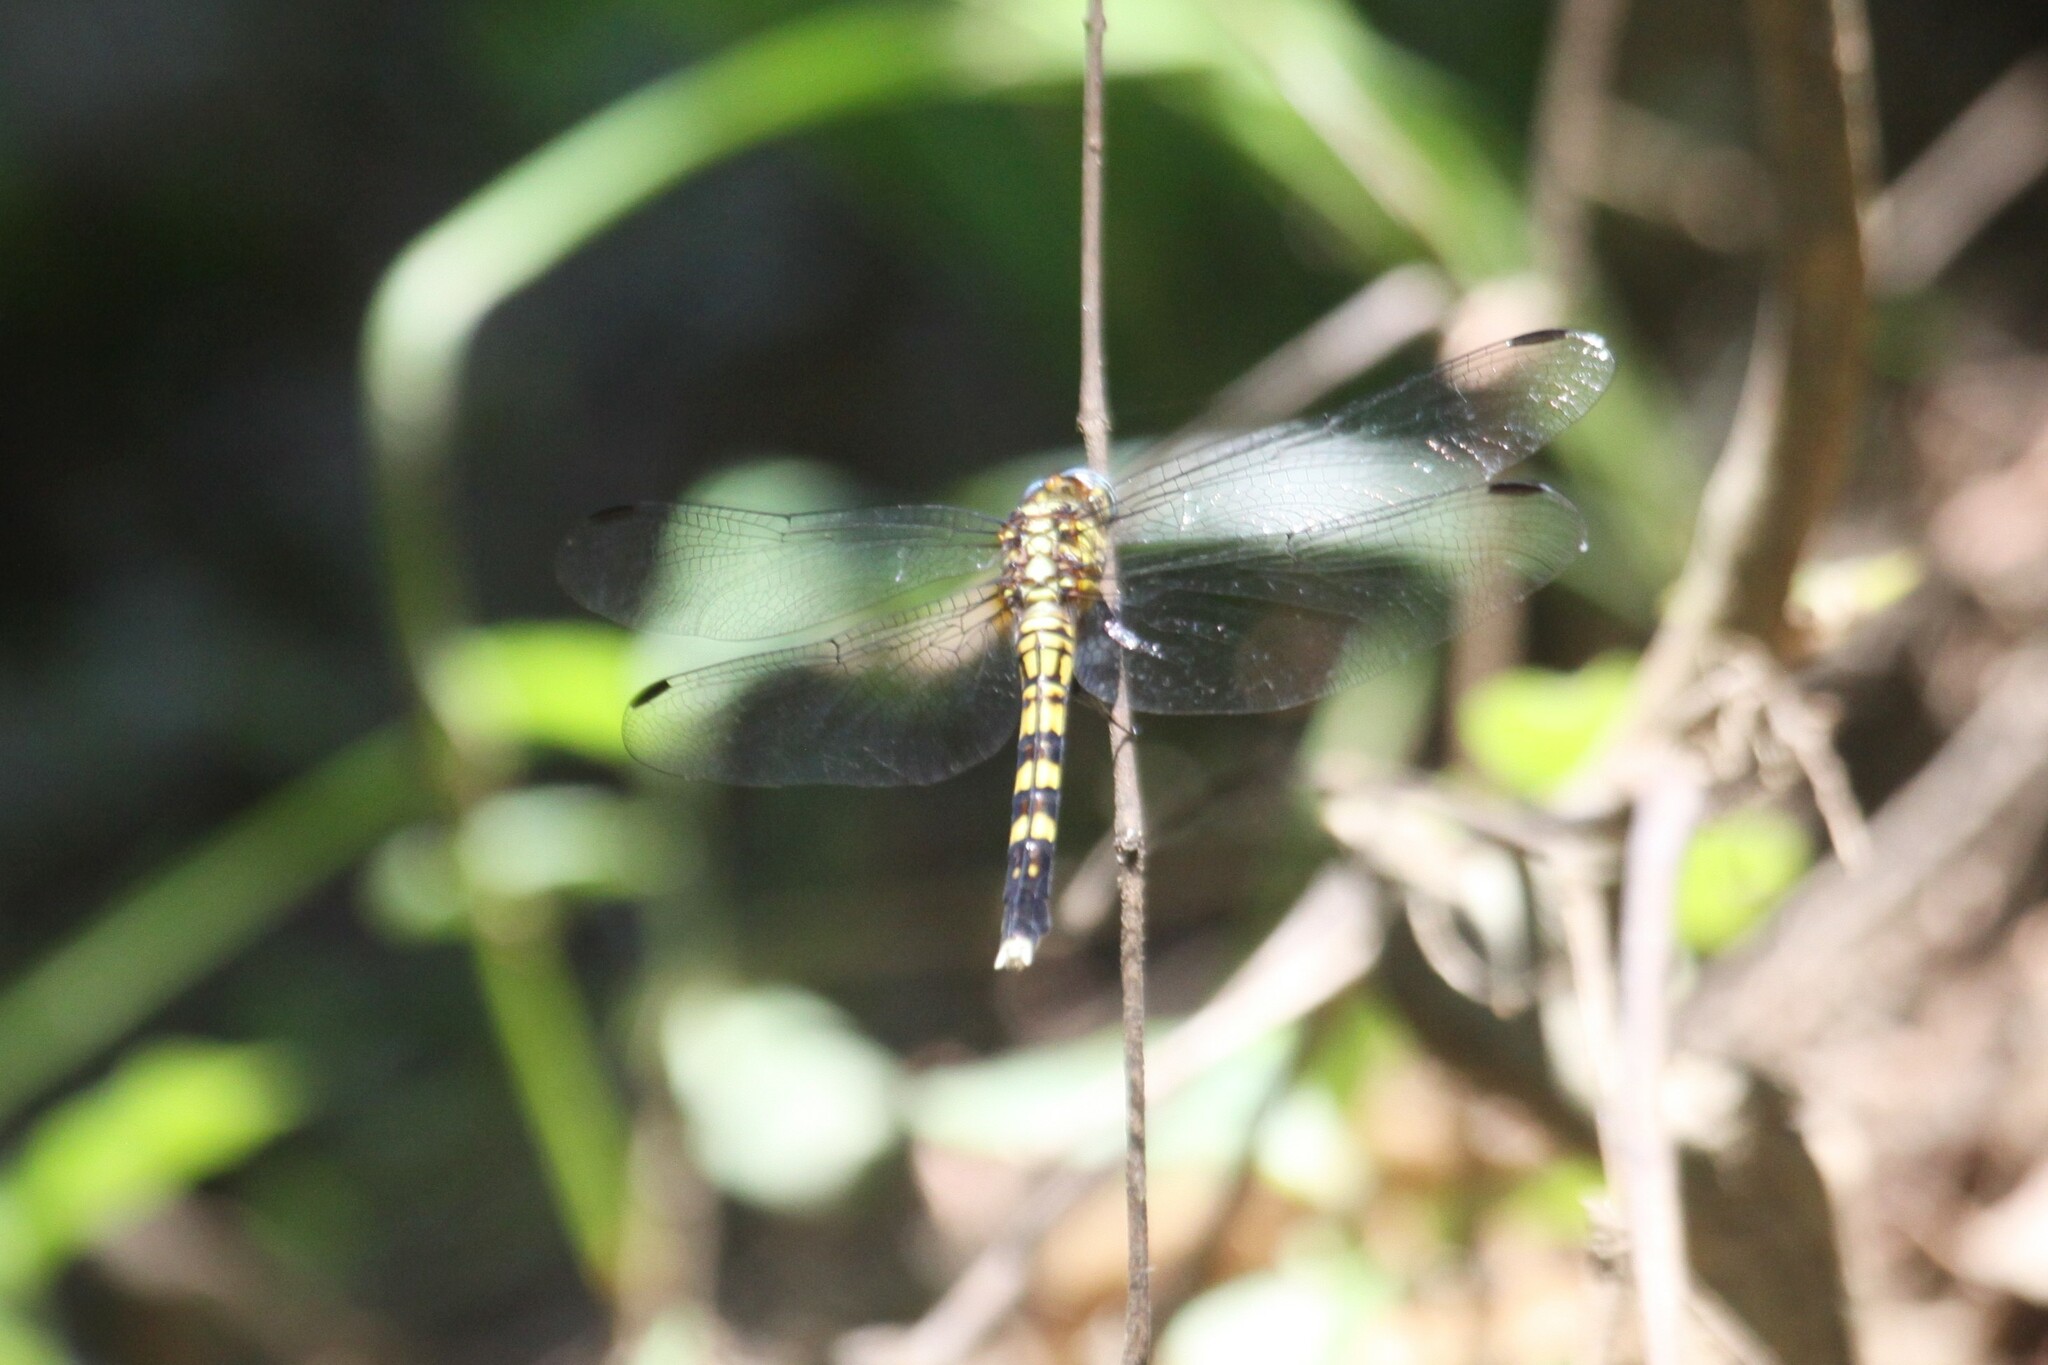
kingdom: Animalia
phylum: Arthropoda
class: Insecta
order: Odonata
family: Libellulidae
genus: Orthetrum
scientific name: Orthetrum julia
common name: Julia skimmer
